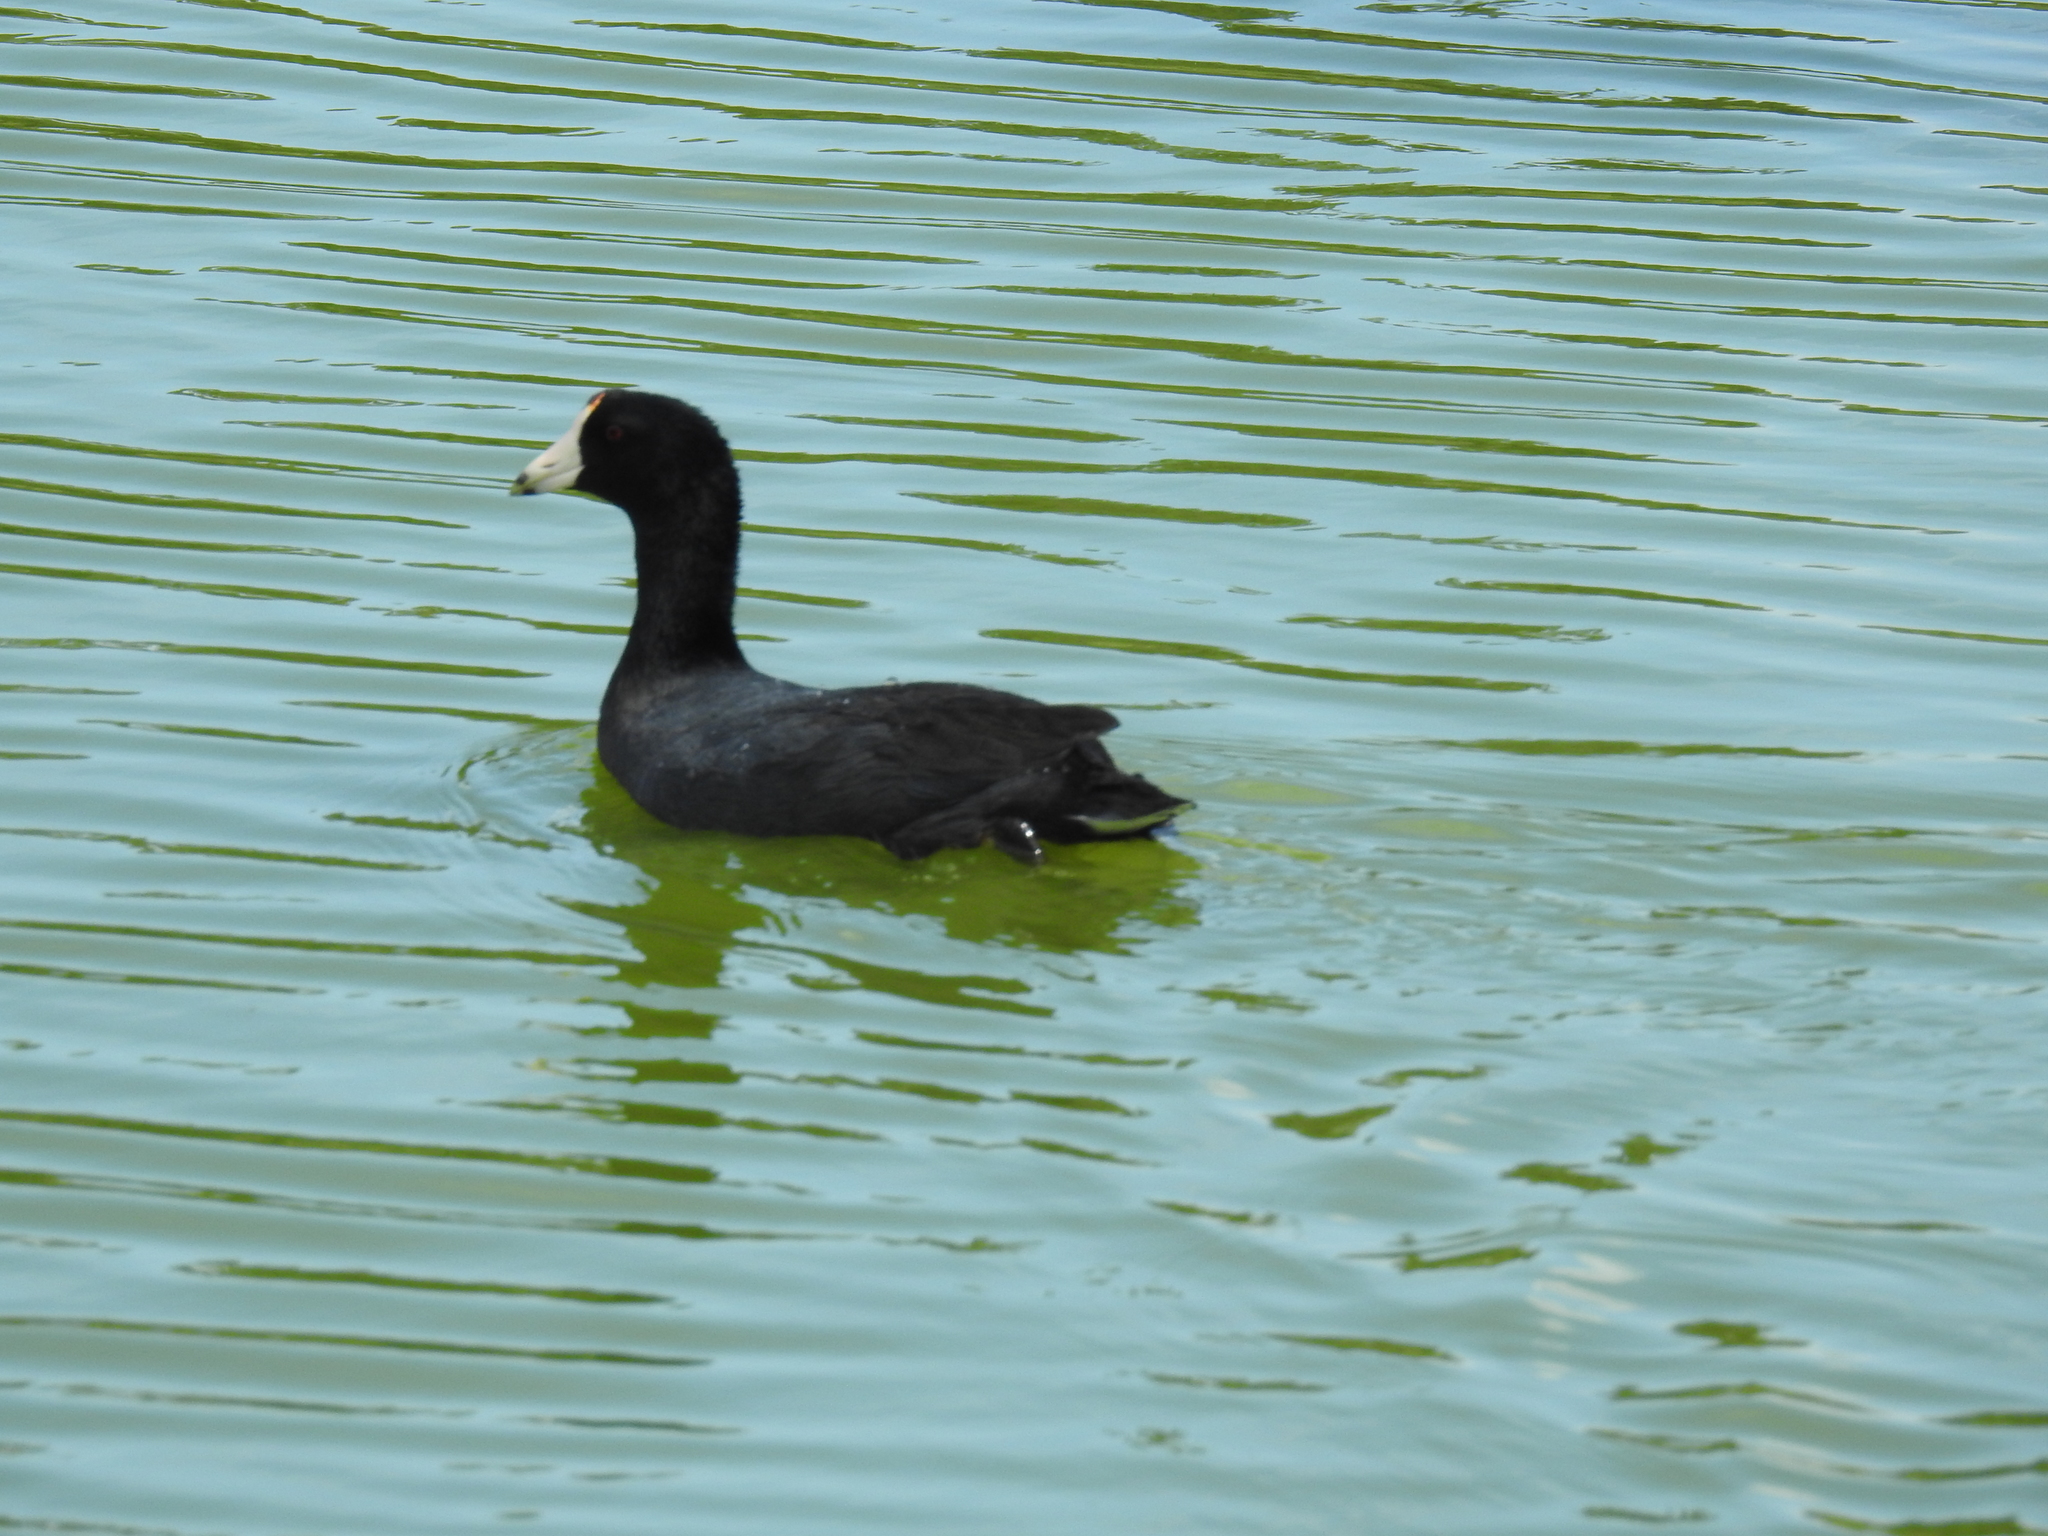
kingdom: Animalia
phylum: Chordata
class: Aves
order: Gruiformes
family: Rallidae
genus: Fulica
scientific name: Fulica americana
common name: American coot
